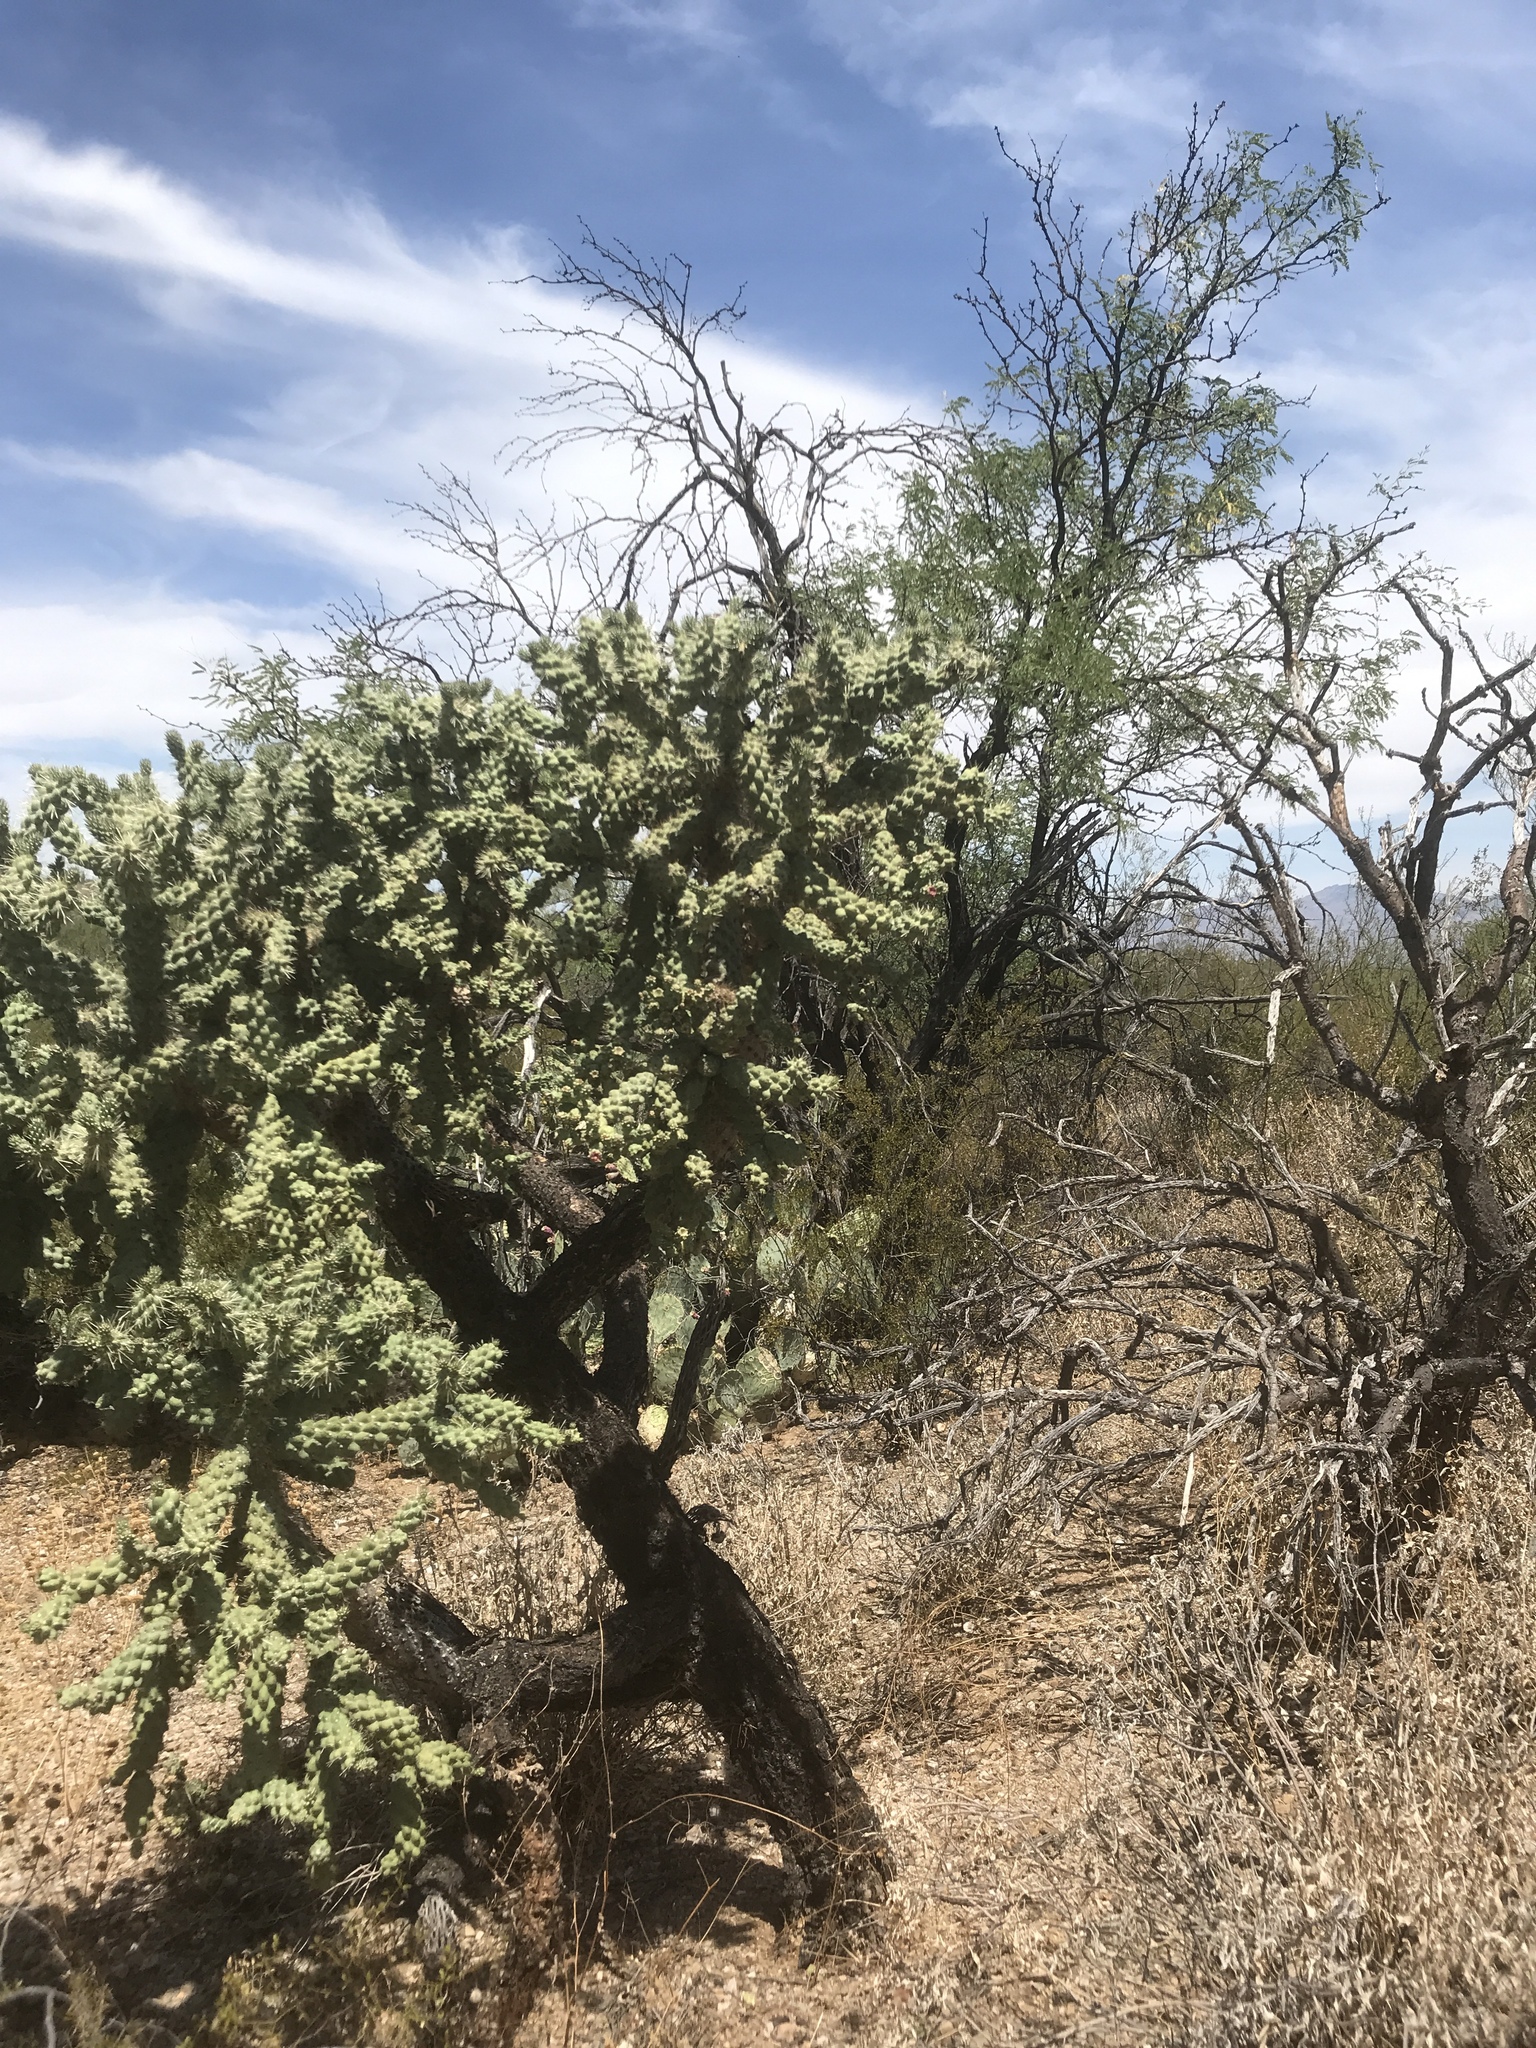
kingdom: Plantae
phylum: Tracheophyta
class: Magnoliopsida
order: Caryophyllales
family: Cactaceae
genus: Cylindropuntia
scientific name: Cylindropuntia fulgida
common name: Jumping cholla
